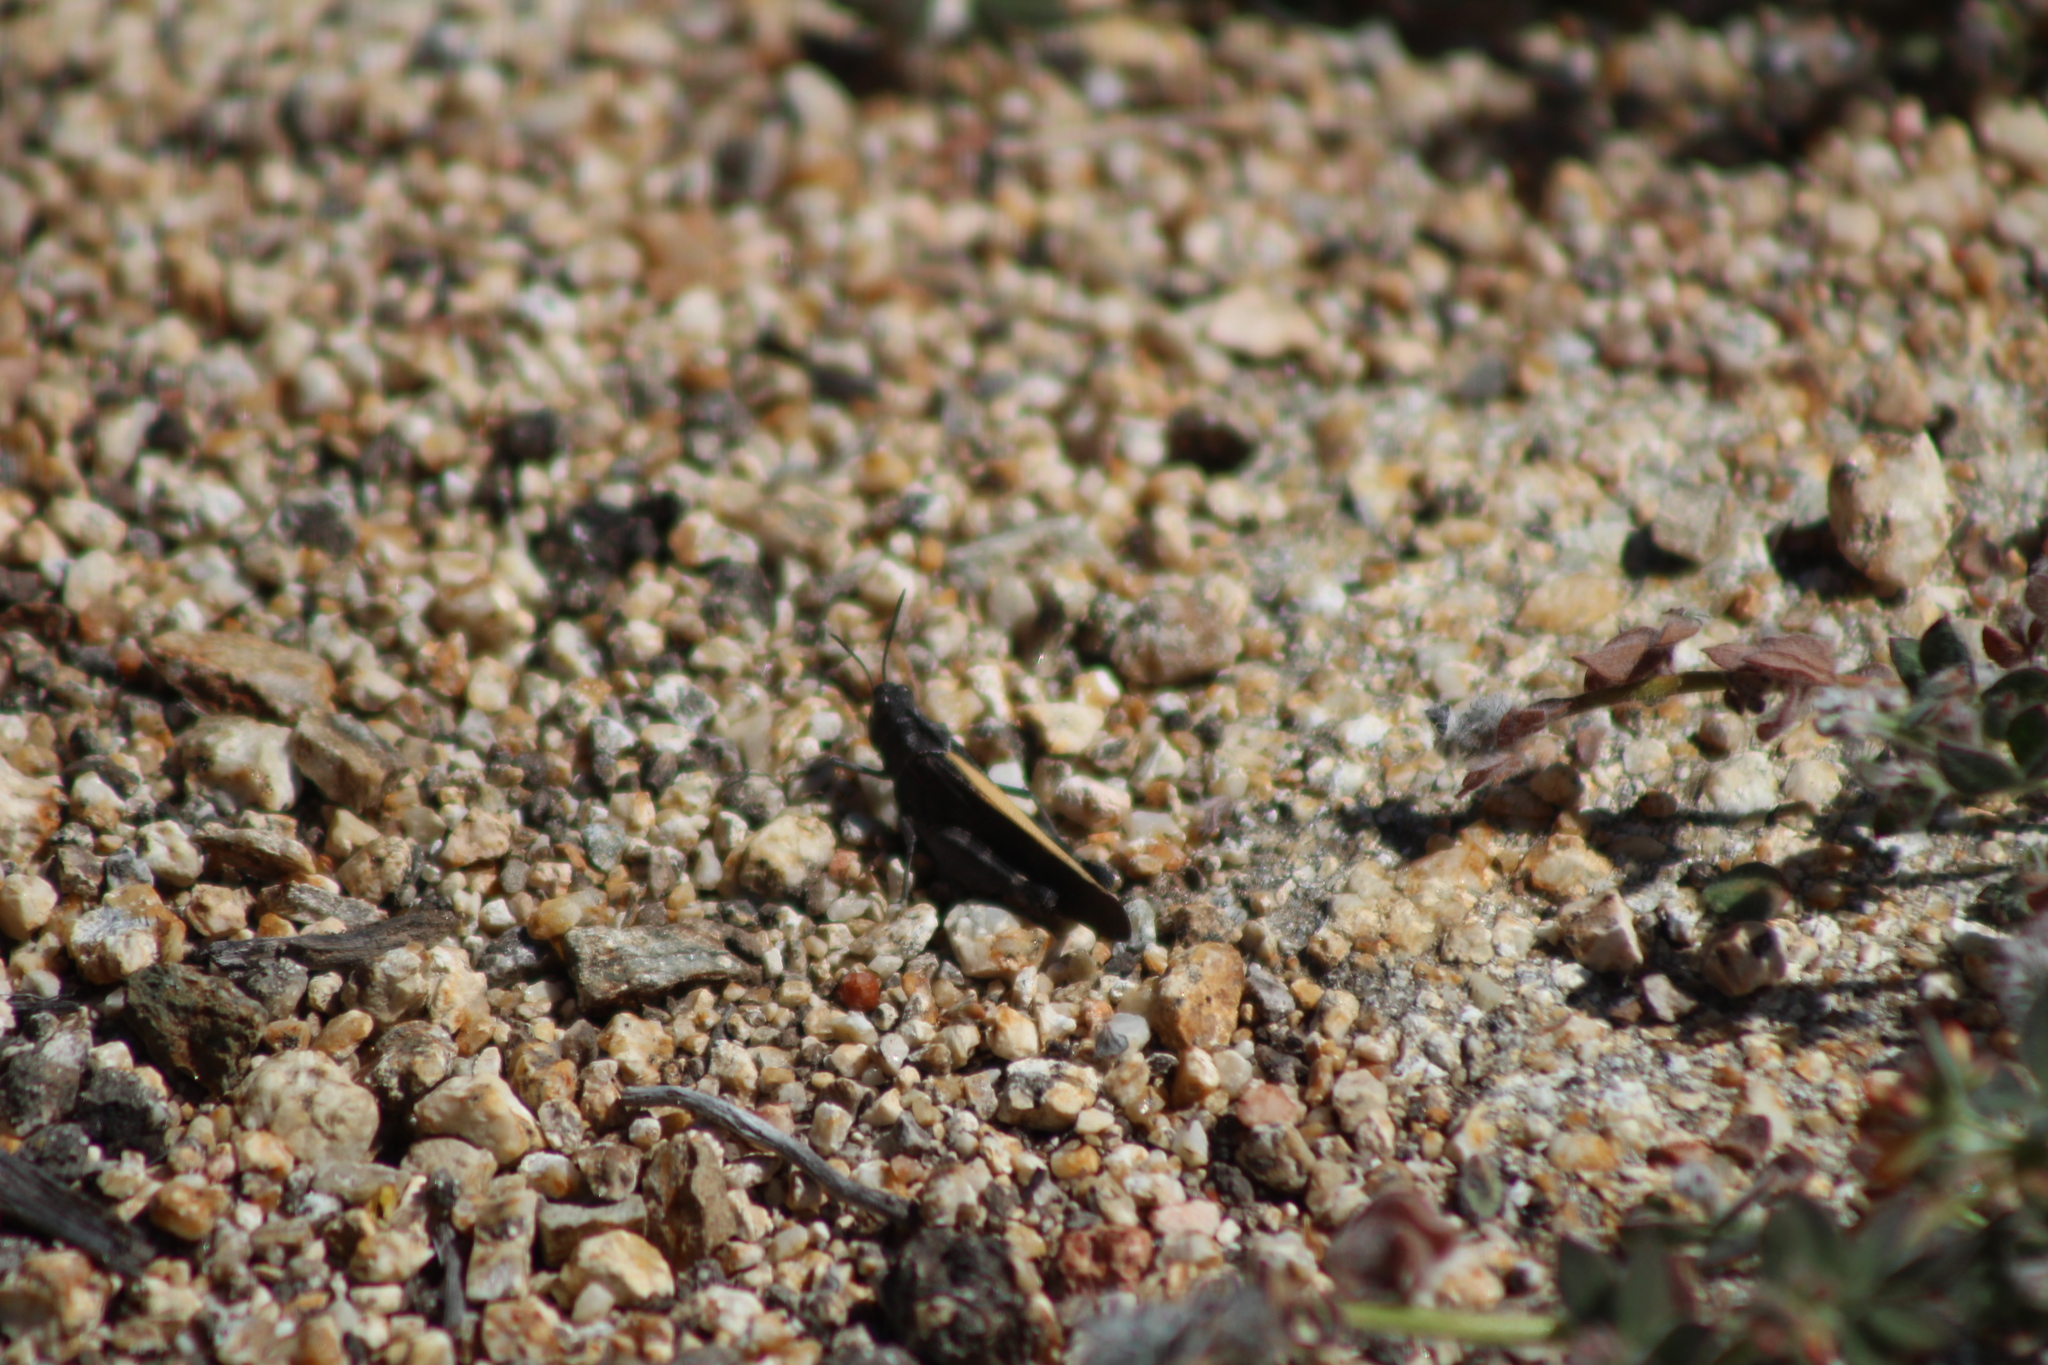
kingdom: Animalia
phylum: Arthropoda
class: Insecta
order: Orthoptera
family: Acrididae
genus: Arphia
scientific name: Arphia ramona
